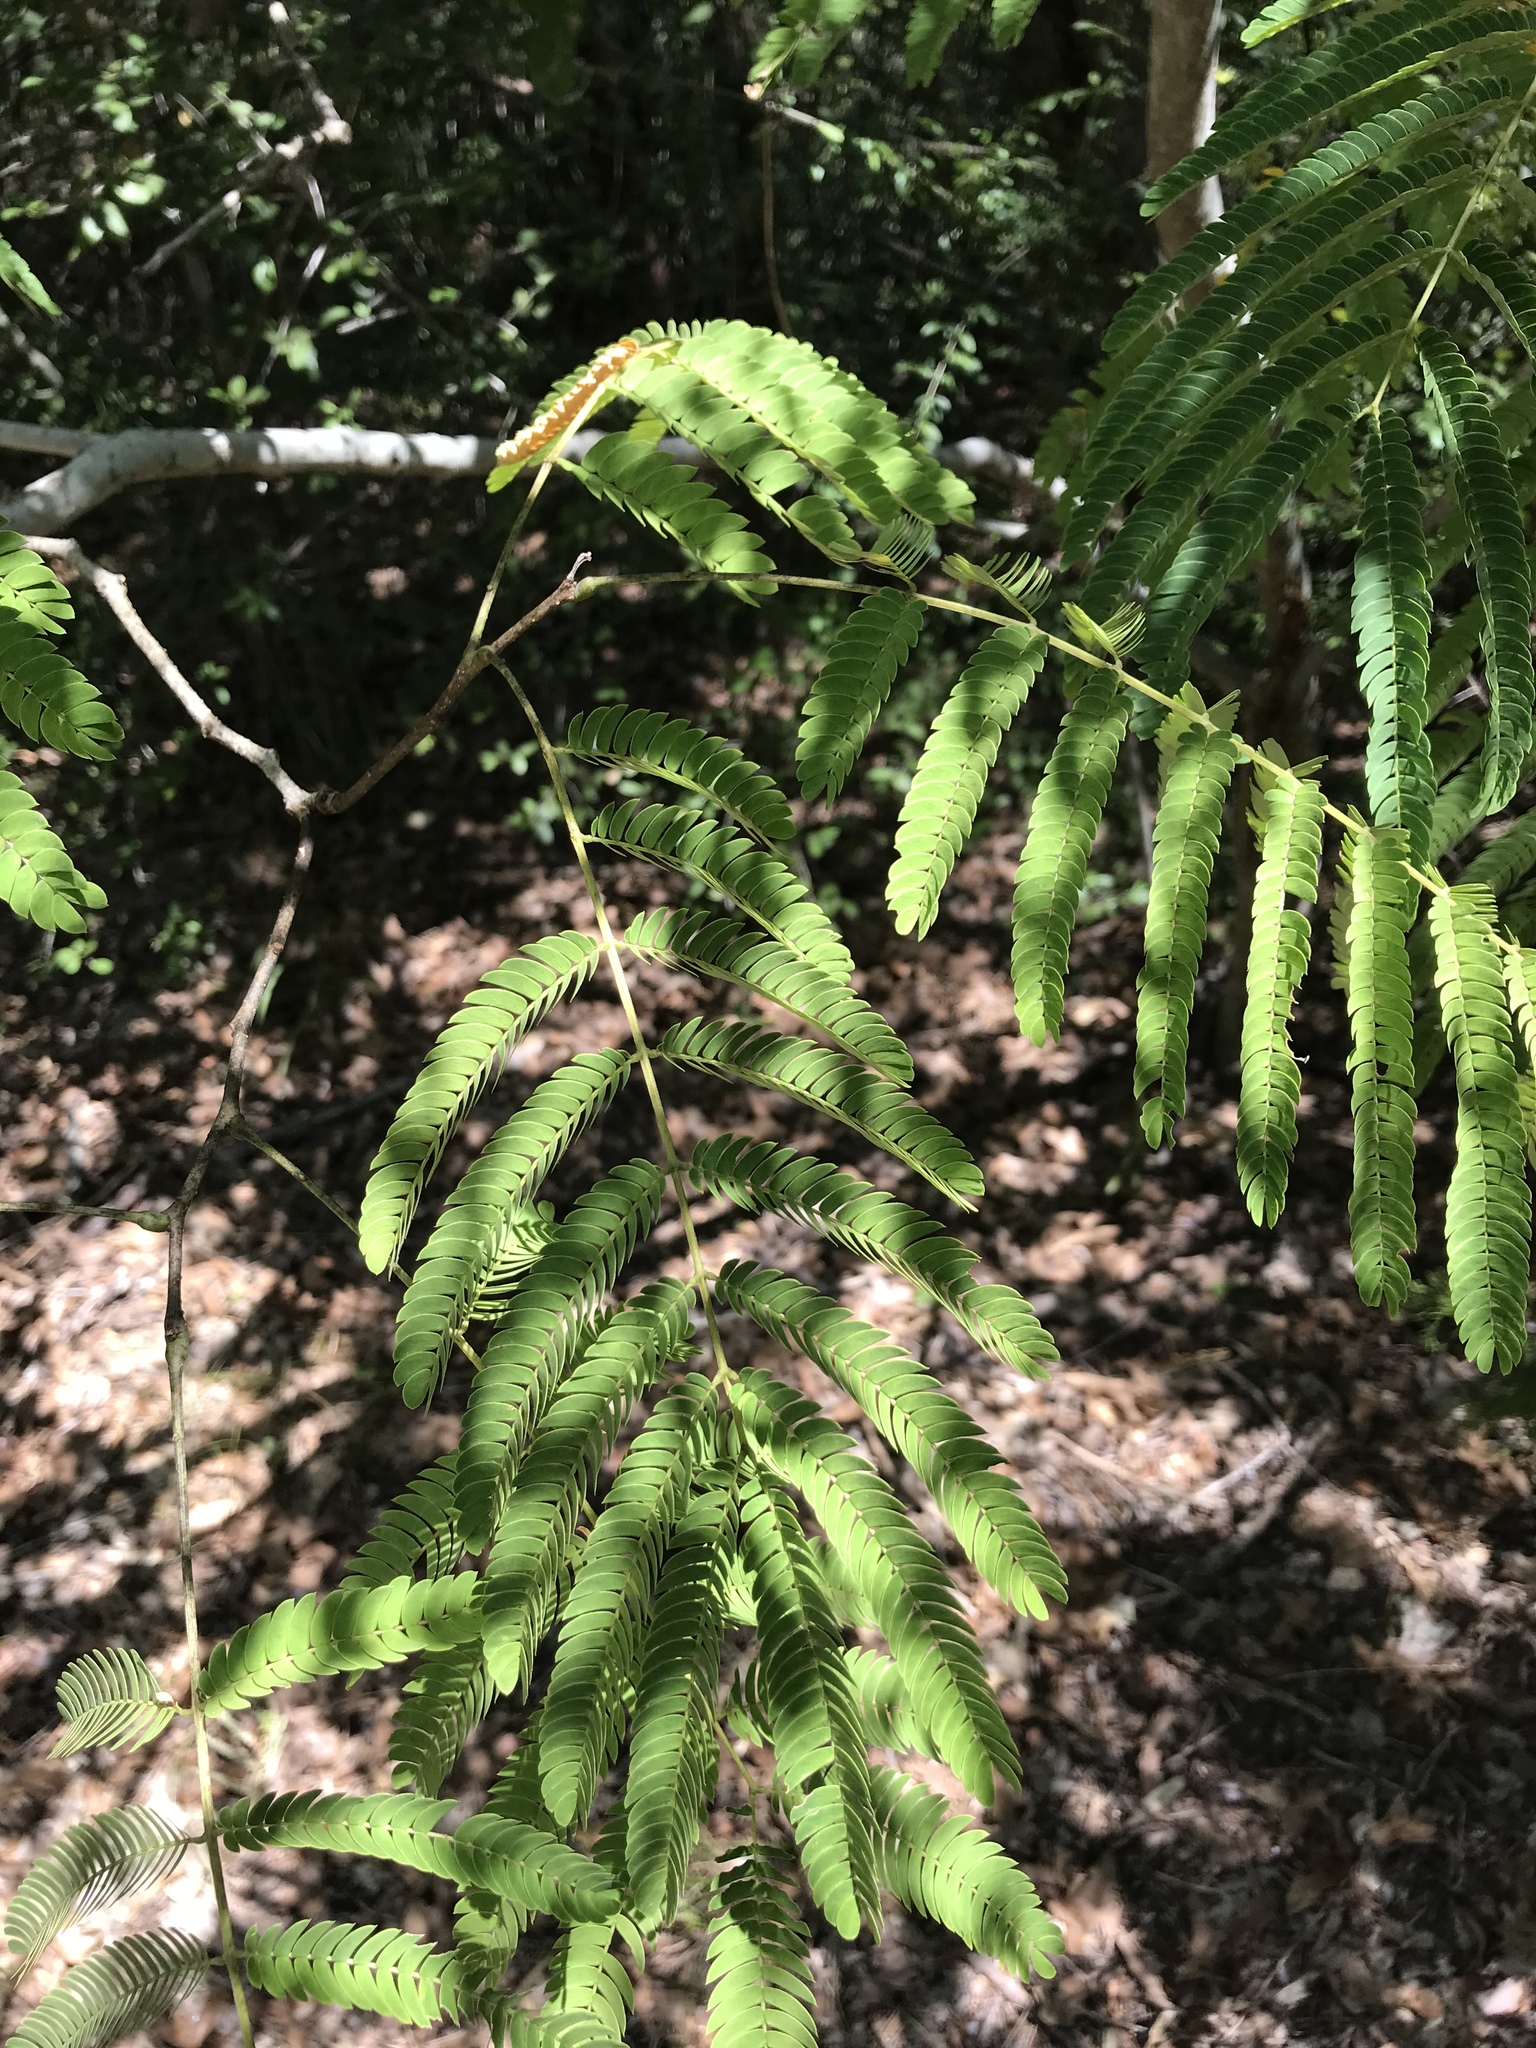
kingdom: Plantae
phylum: Tracheophyta
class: Magnoliopsida
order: Fabales
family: Fabaceae
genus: Albizia
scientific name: Albizia julibrissin
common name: Silktree
